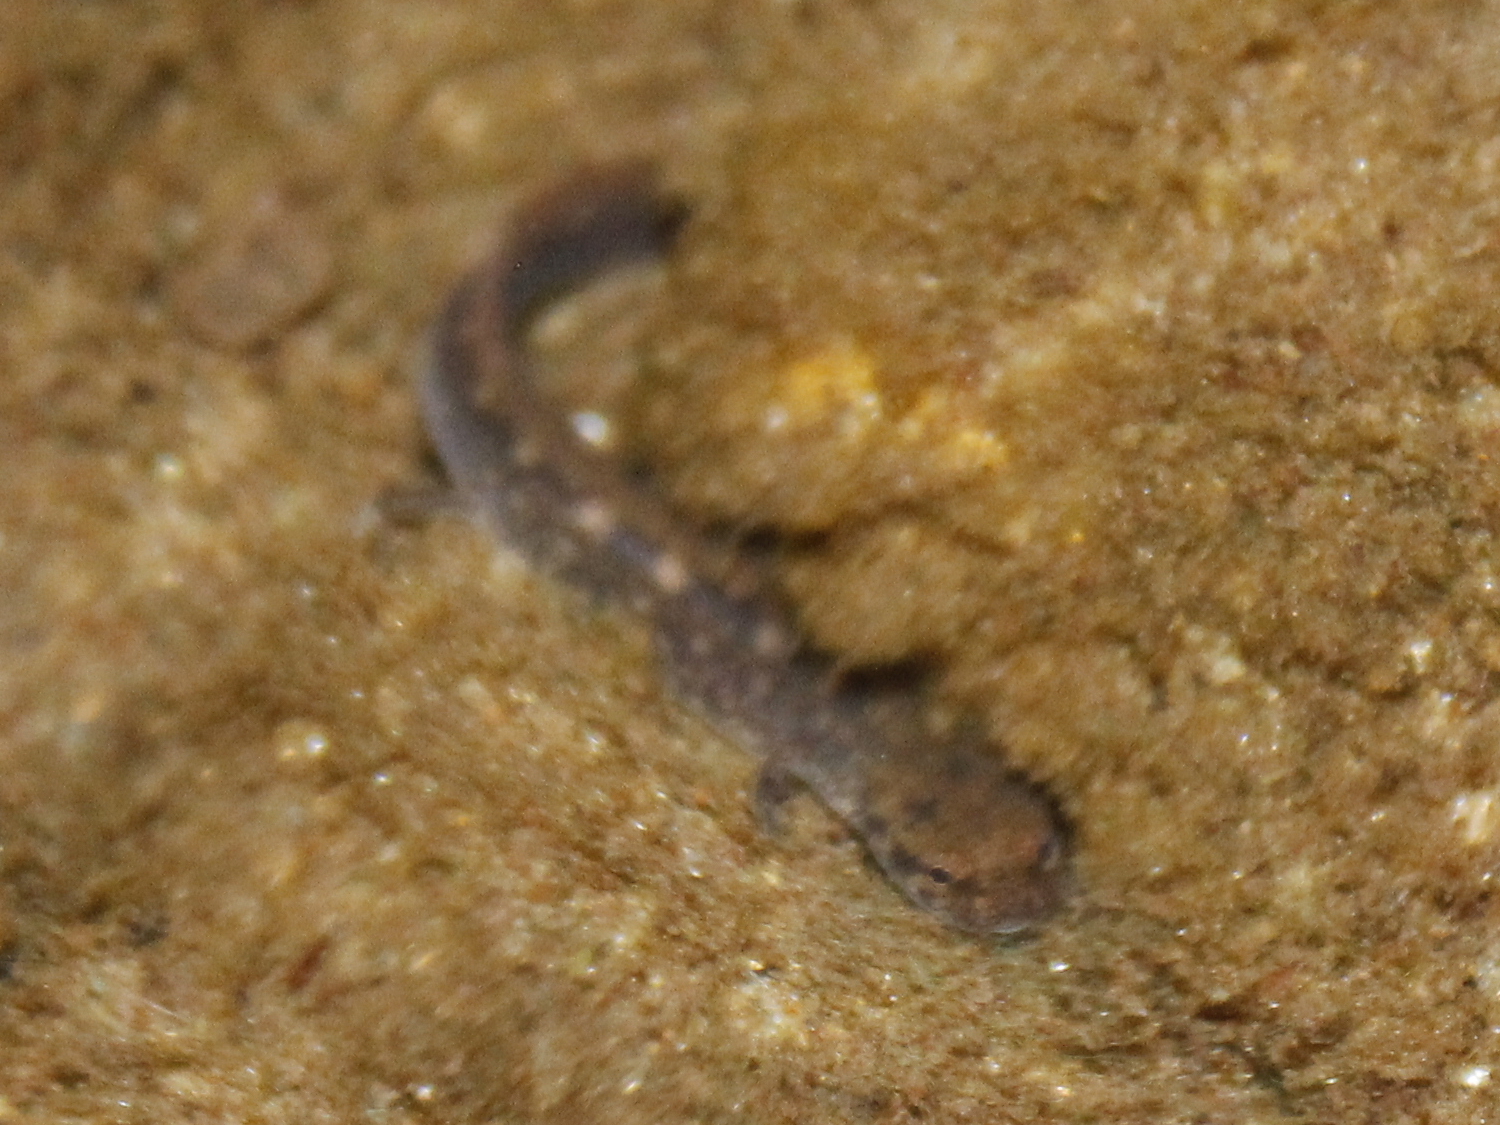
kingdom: Animalia
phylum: Chordata
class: Amphibia
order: Caudata
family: Plethodontidae
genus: Eurycea
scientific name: Eurycea bislineata
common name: Northern two-lined salamander
